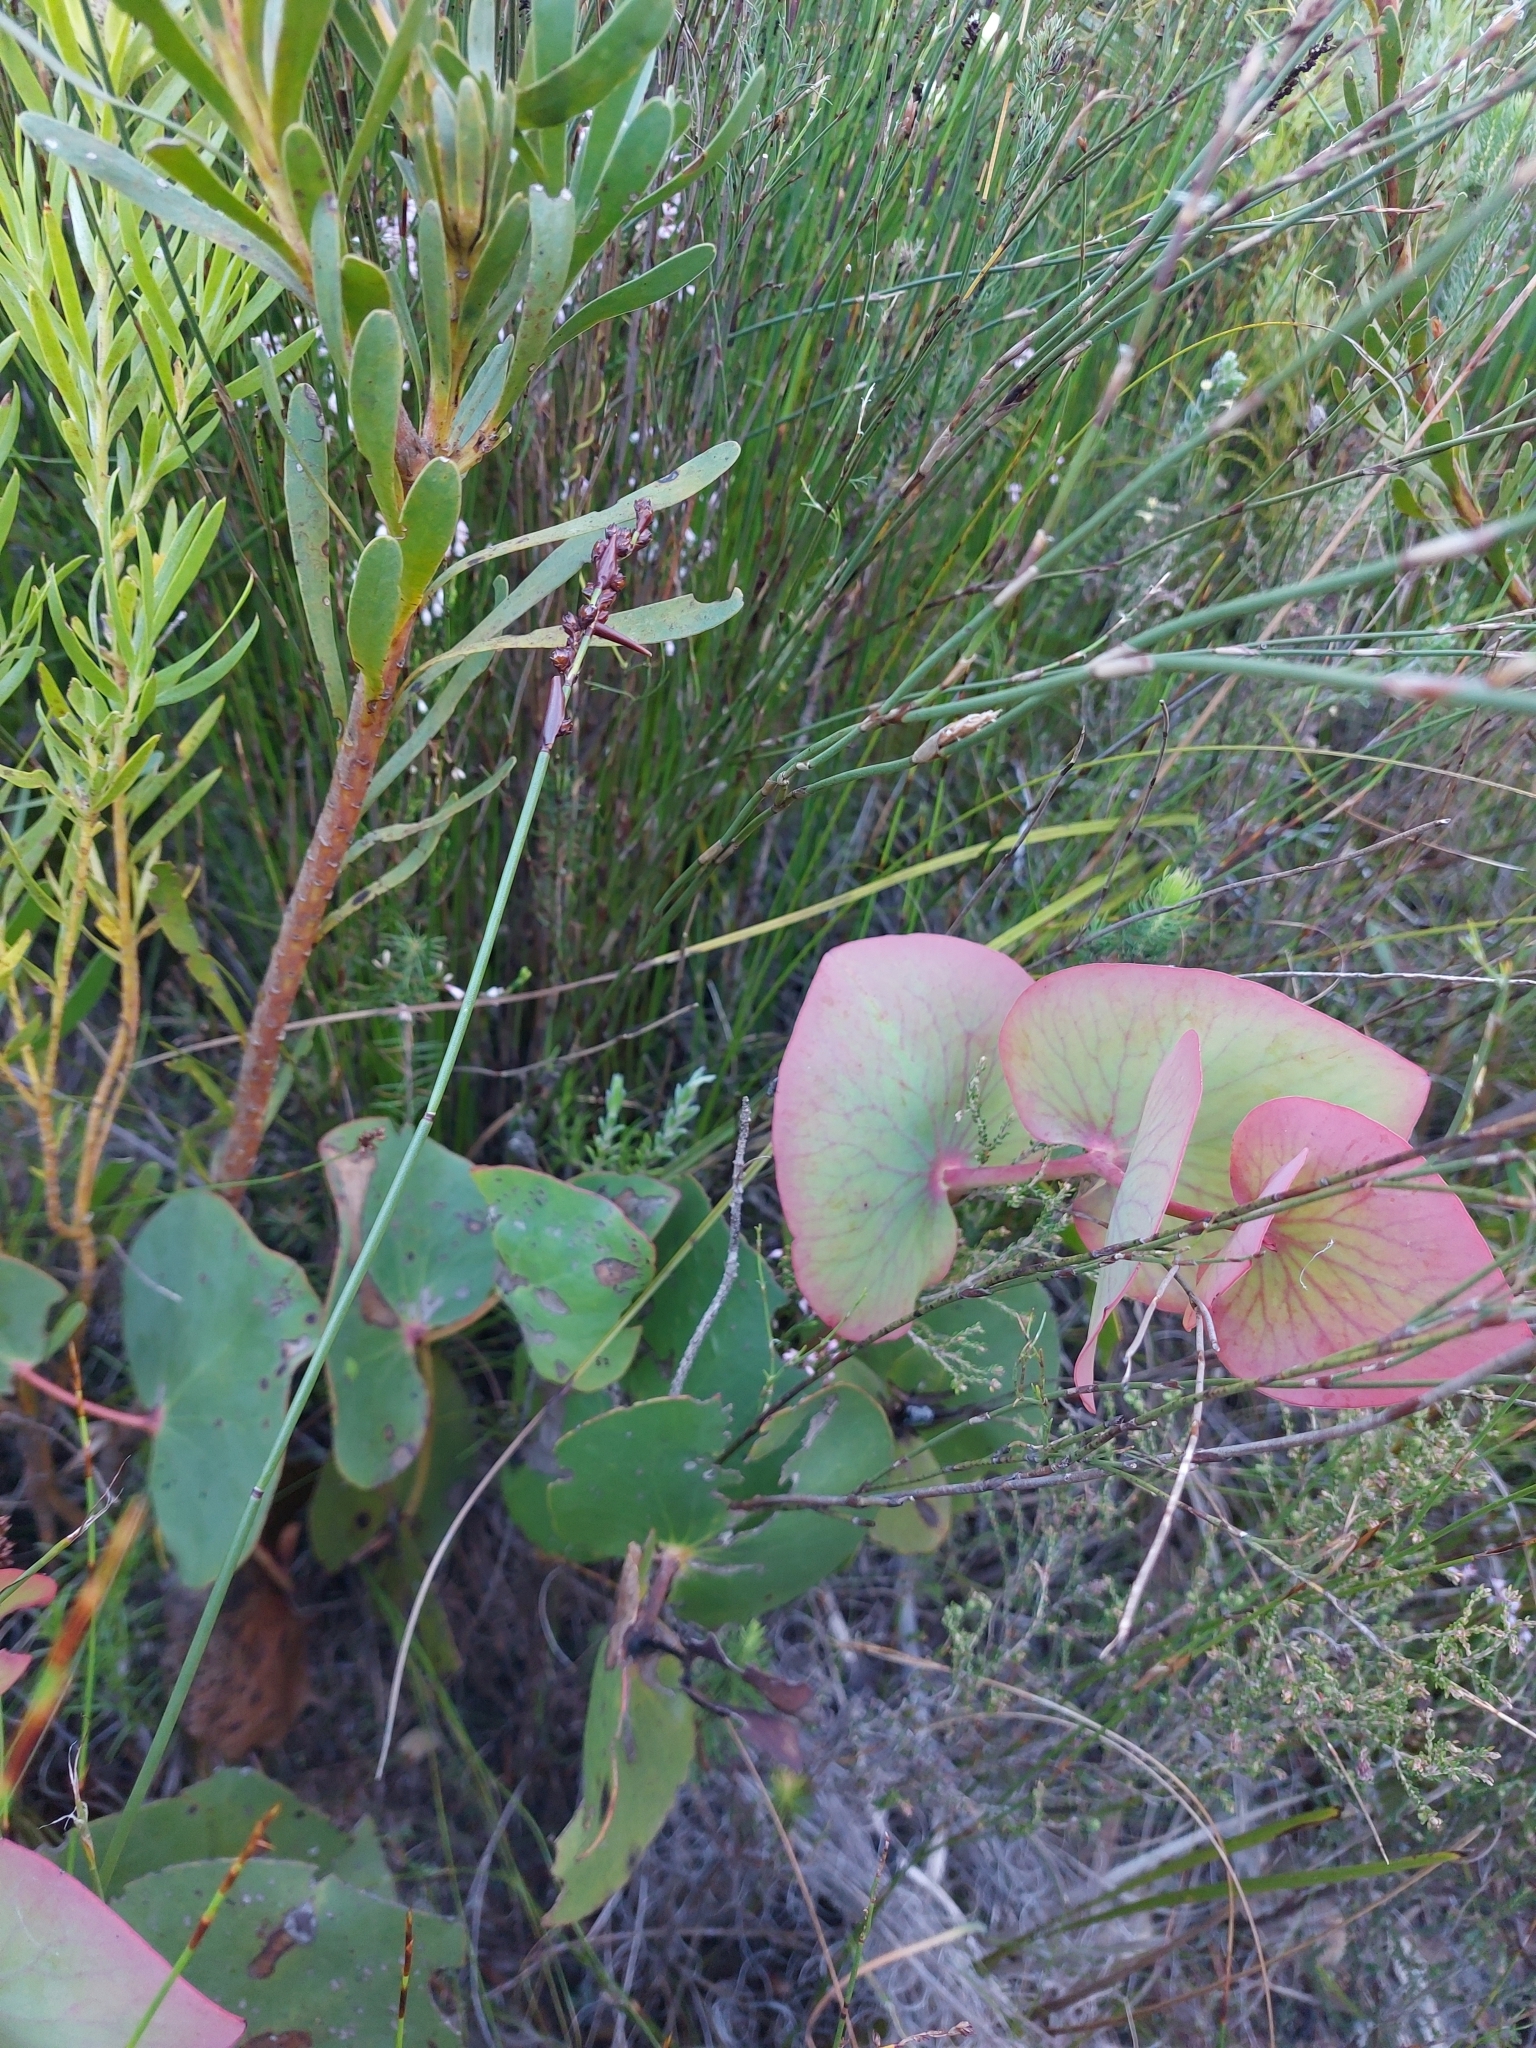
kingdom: Plantae
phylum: Tracheophyta
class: Magnoliopsida
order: Proteales
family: Proteaceae
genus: Protea
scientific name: Protea cordata
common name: Heart-leaf sugarbush
